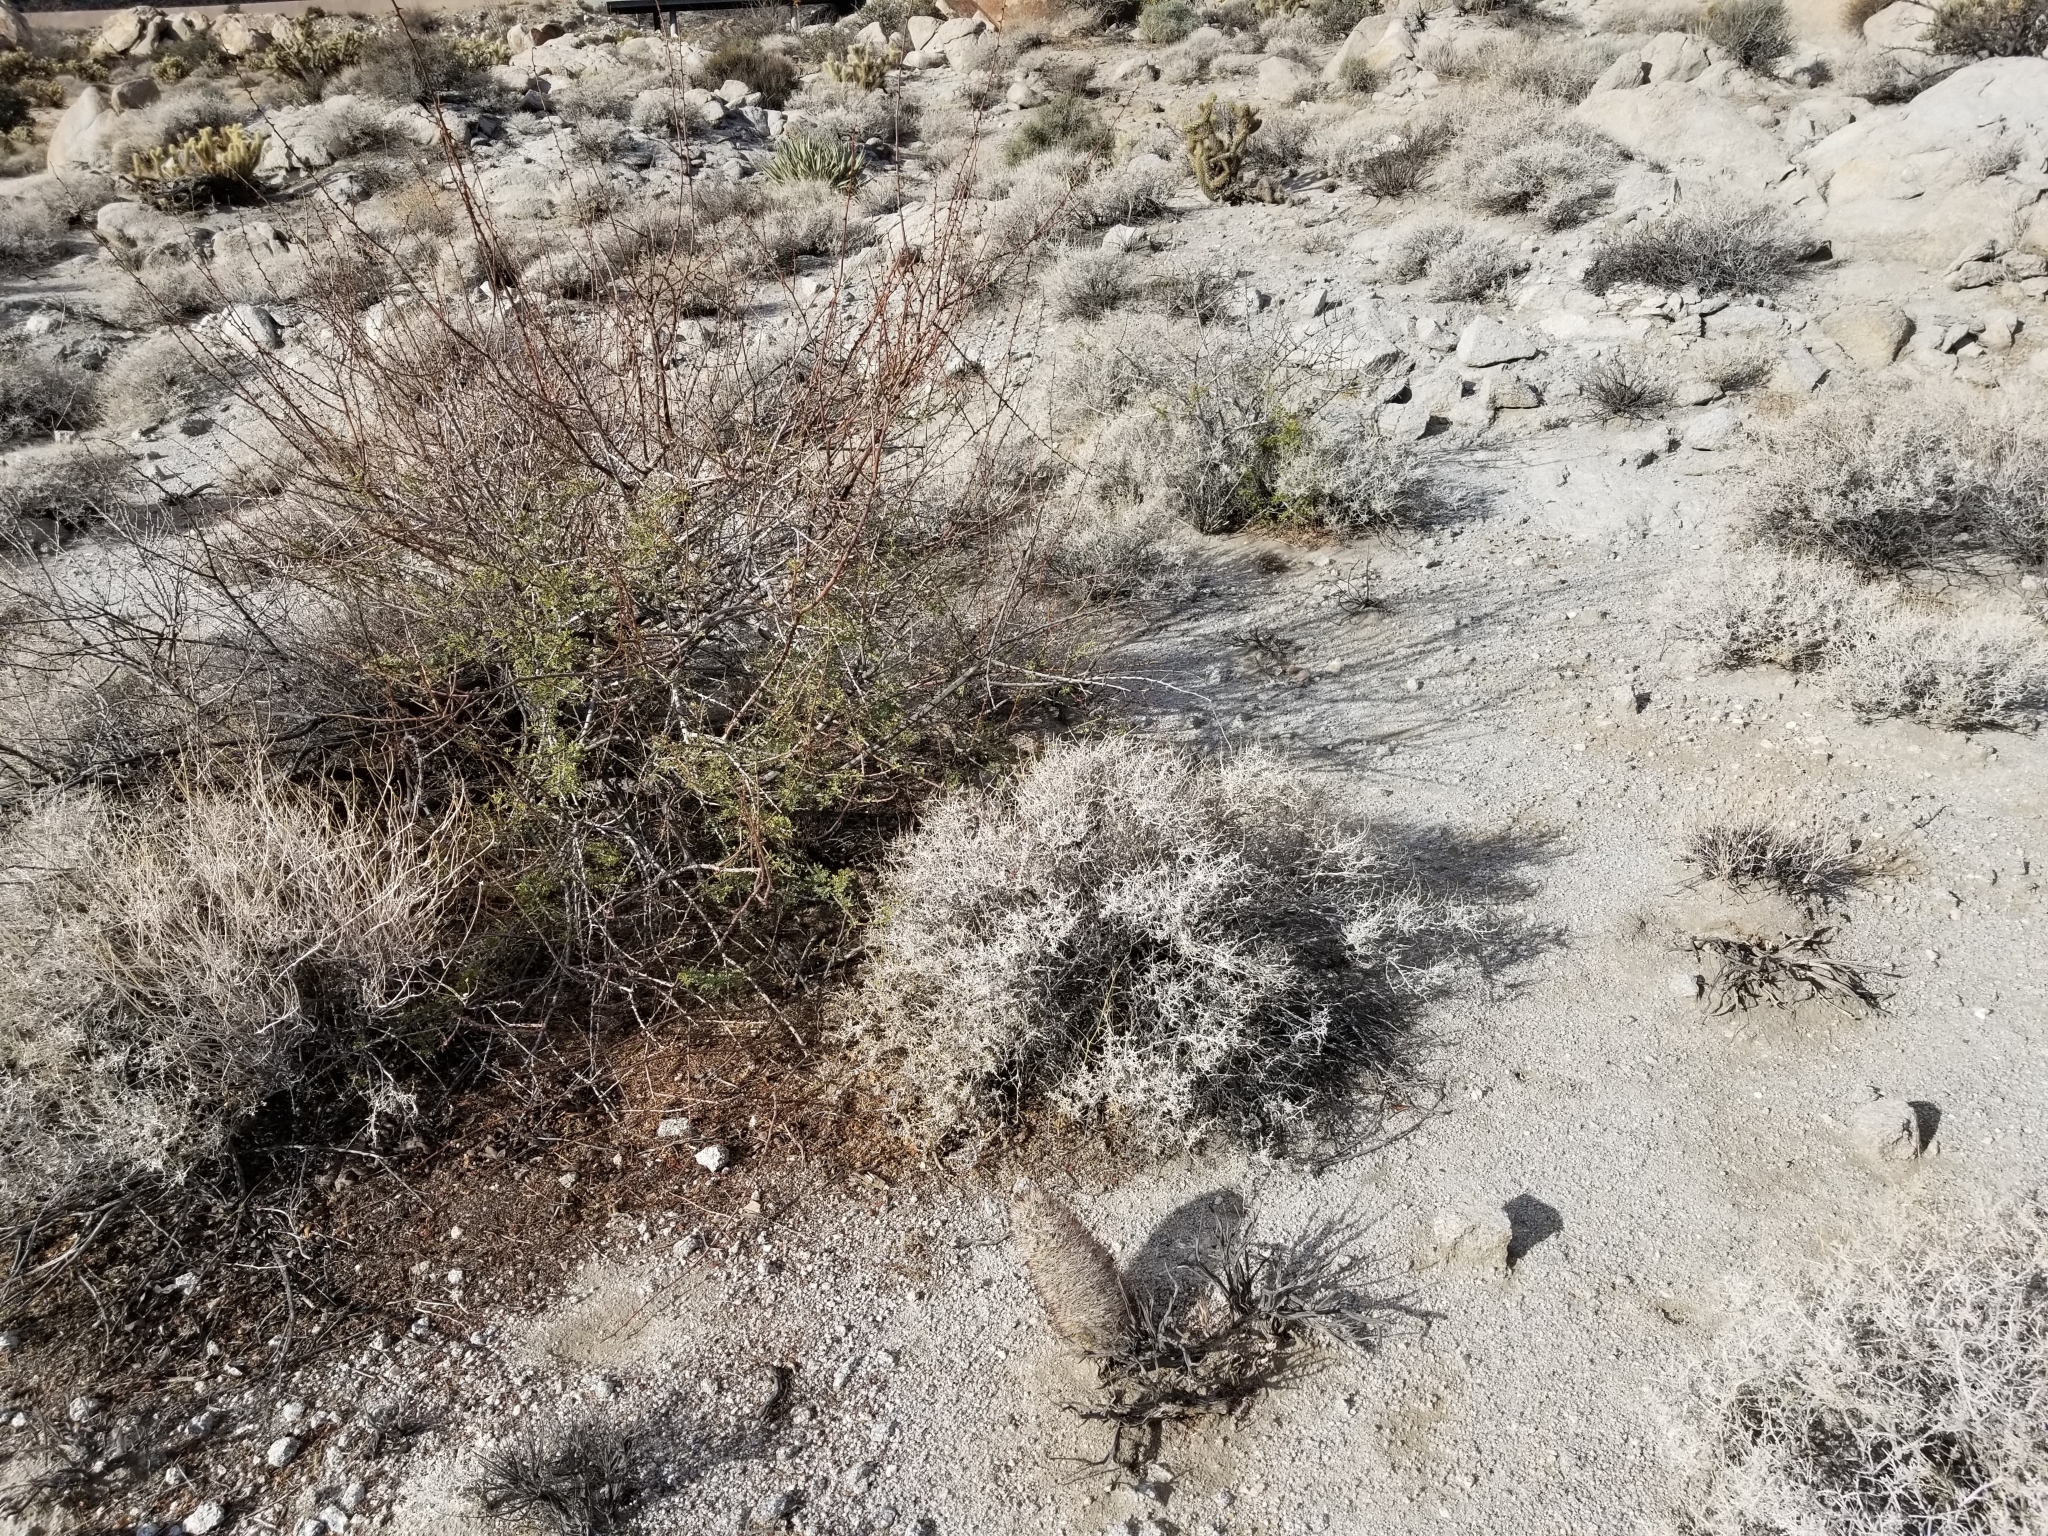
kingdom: Plantae
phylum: Tracheophyta
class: Magnoliopsida
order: Fabales
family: Fabaceae
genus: Senegalia
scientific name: Senegalia greggii
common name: Texas-mimosa
